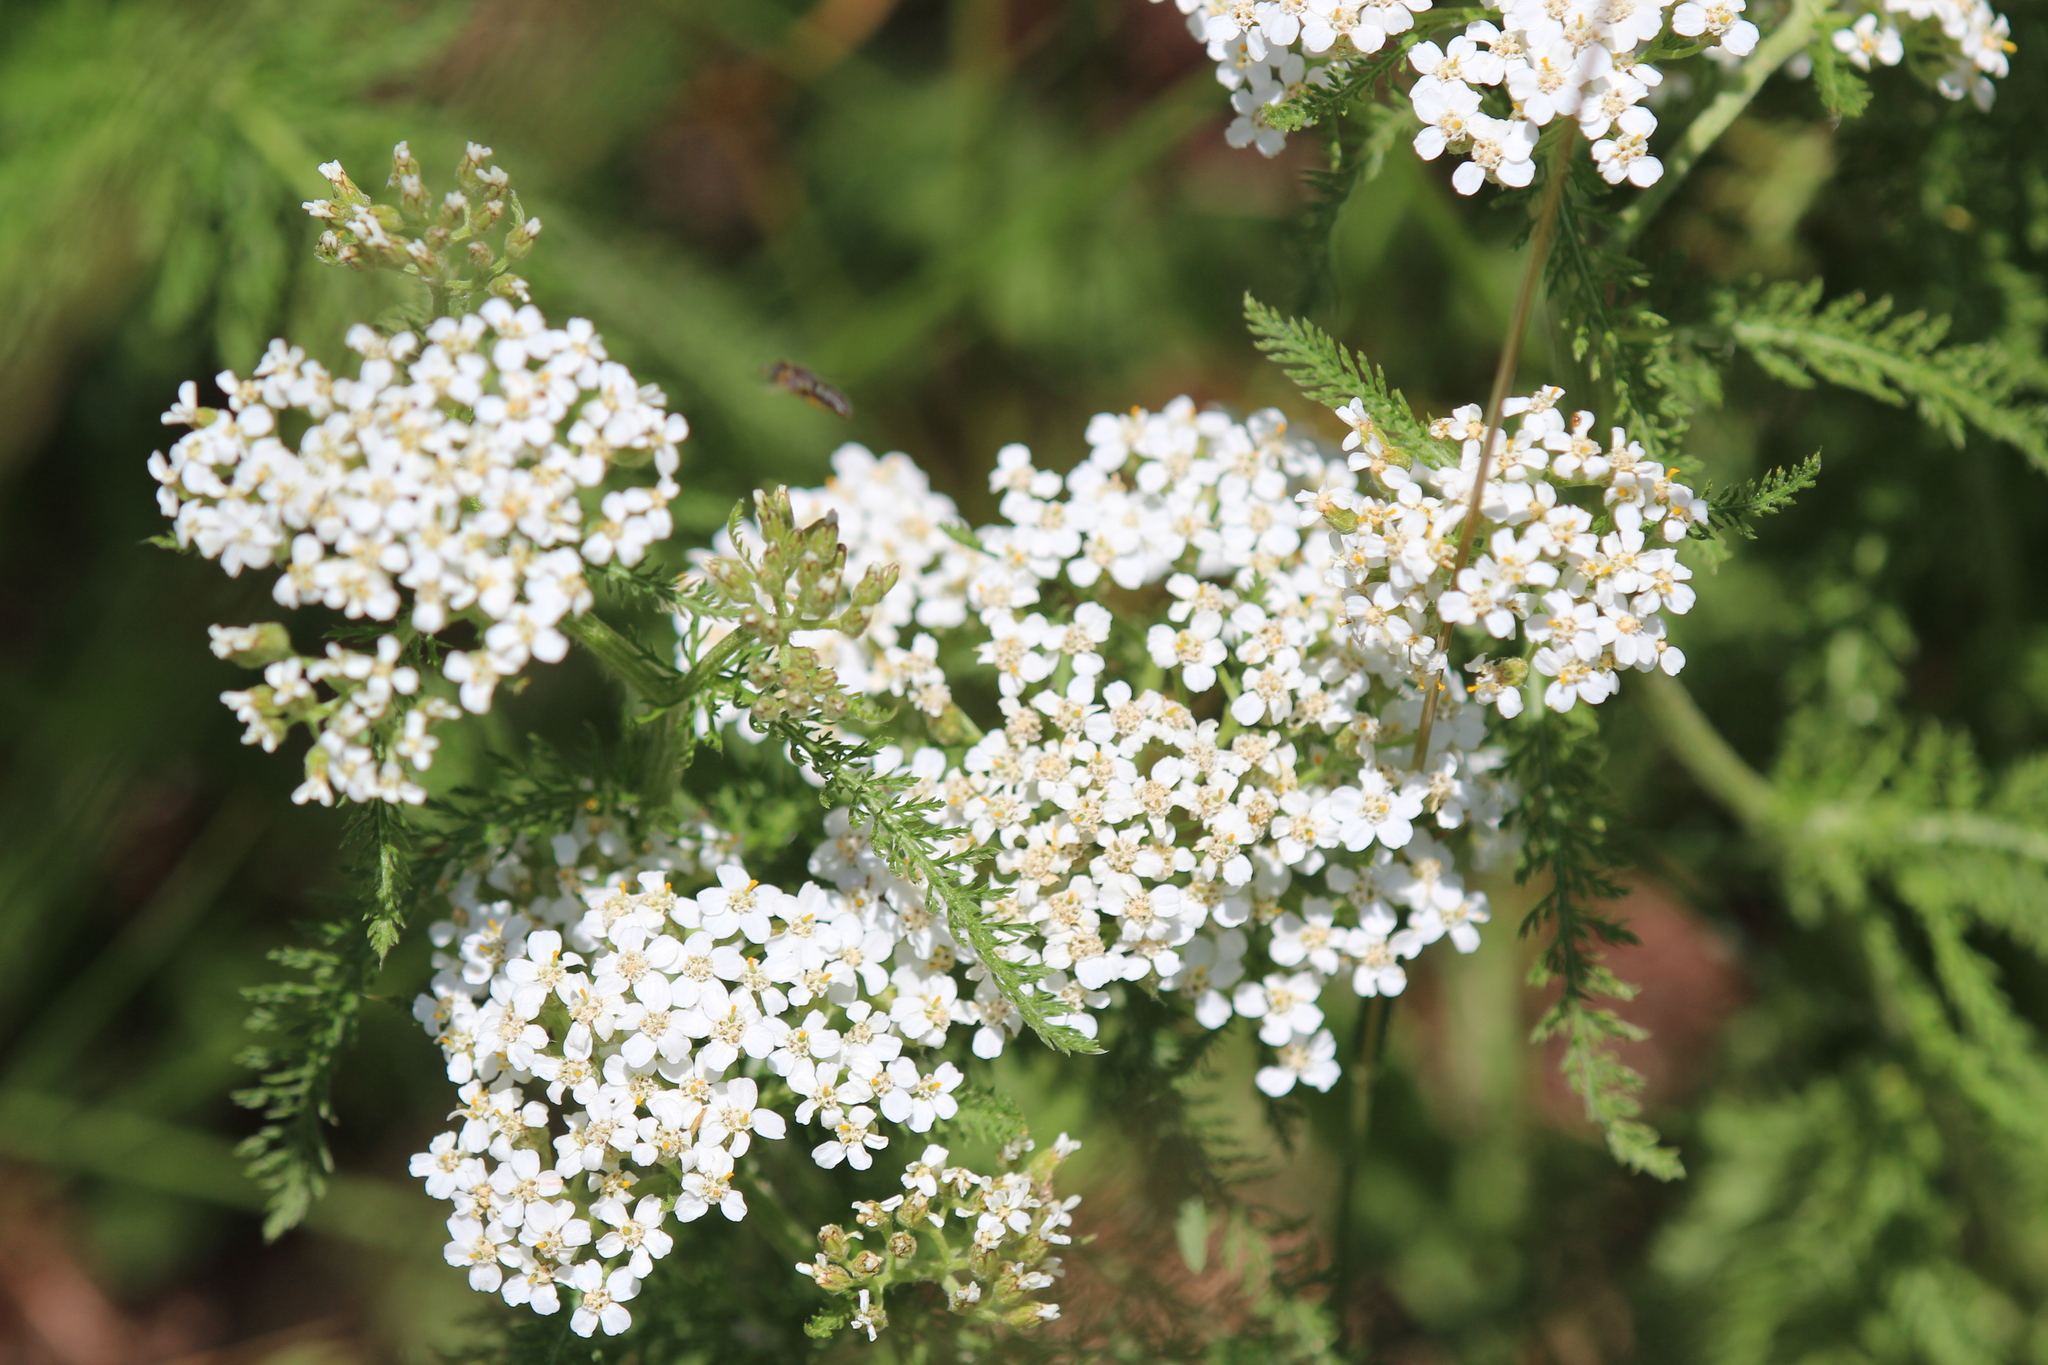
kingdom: Plantae
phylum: Tracheophyta
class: Magnoliopsida
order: Asterales
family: Asteraceae
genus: Achillea
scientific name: Achillea millefolium
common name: Yarrow
